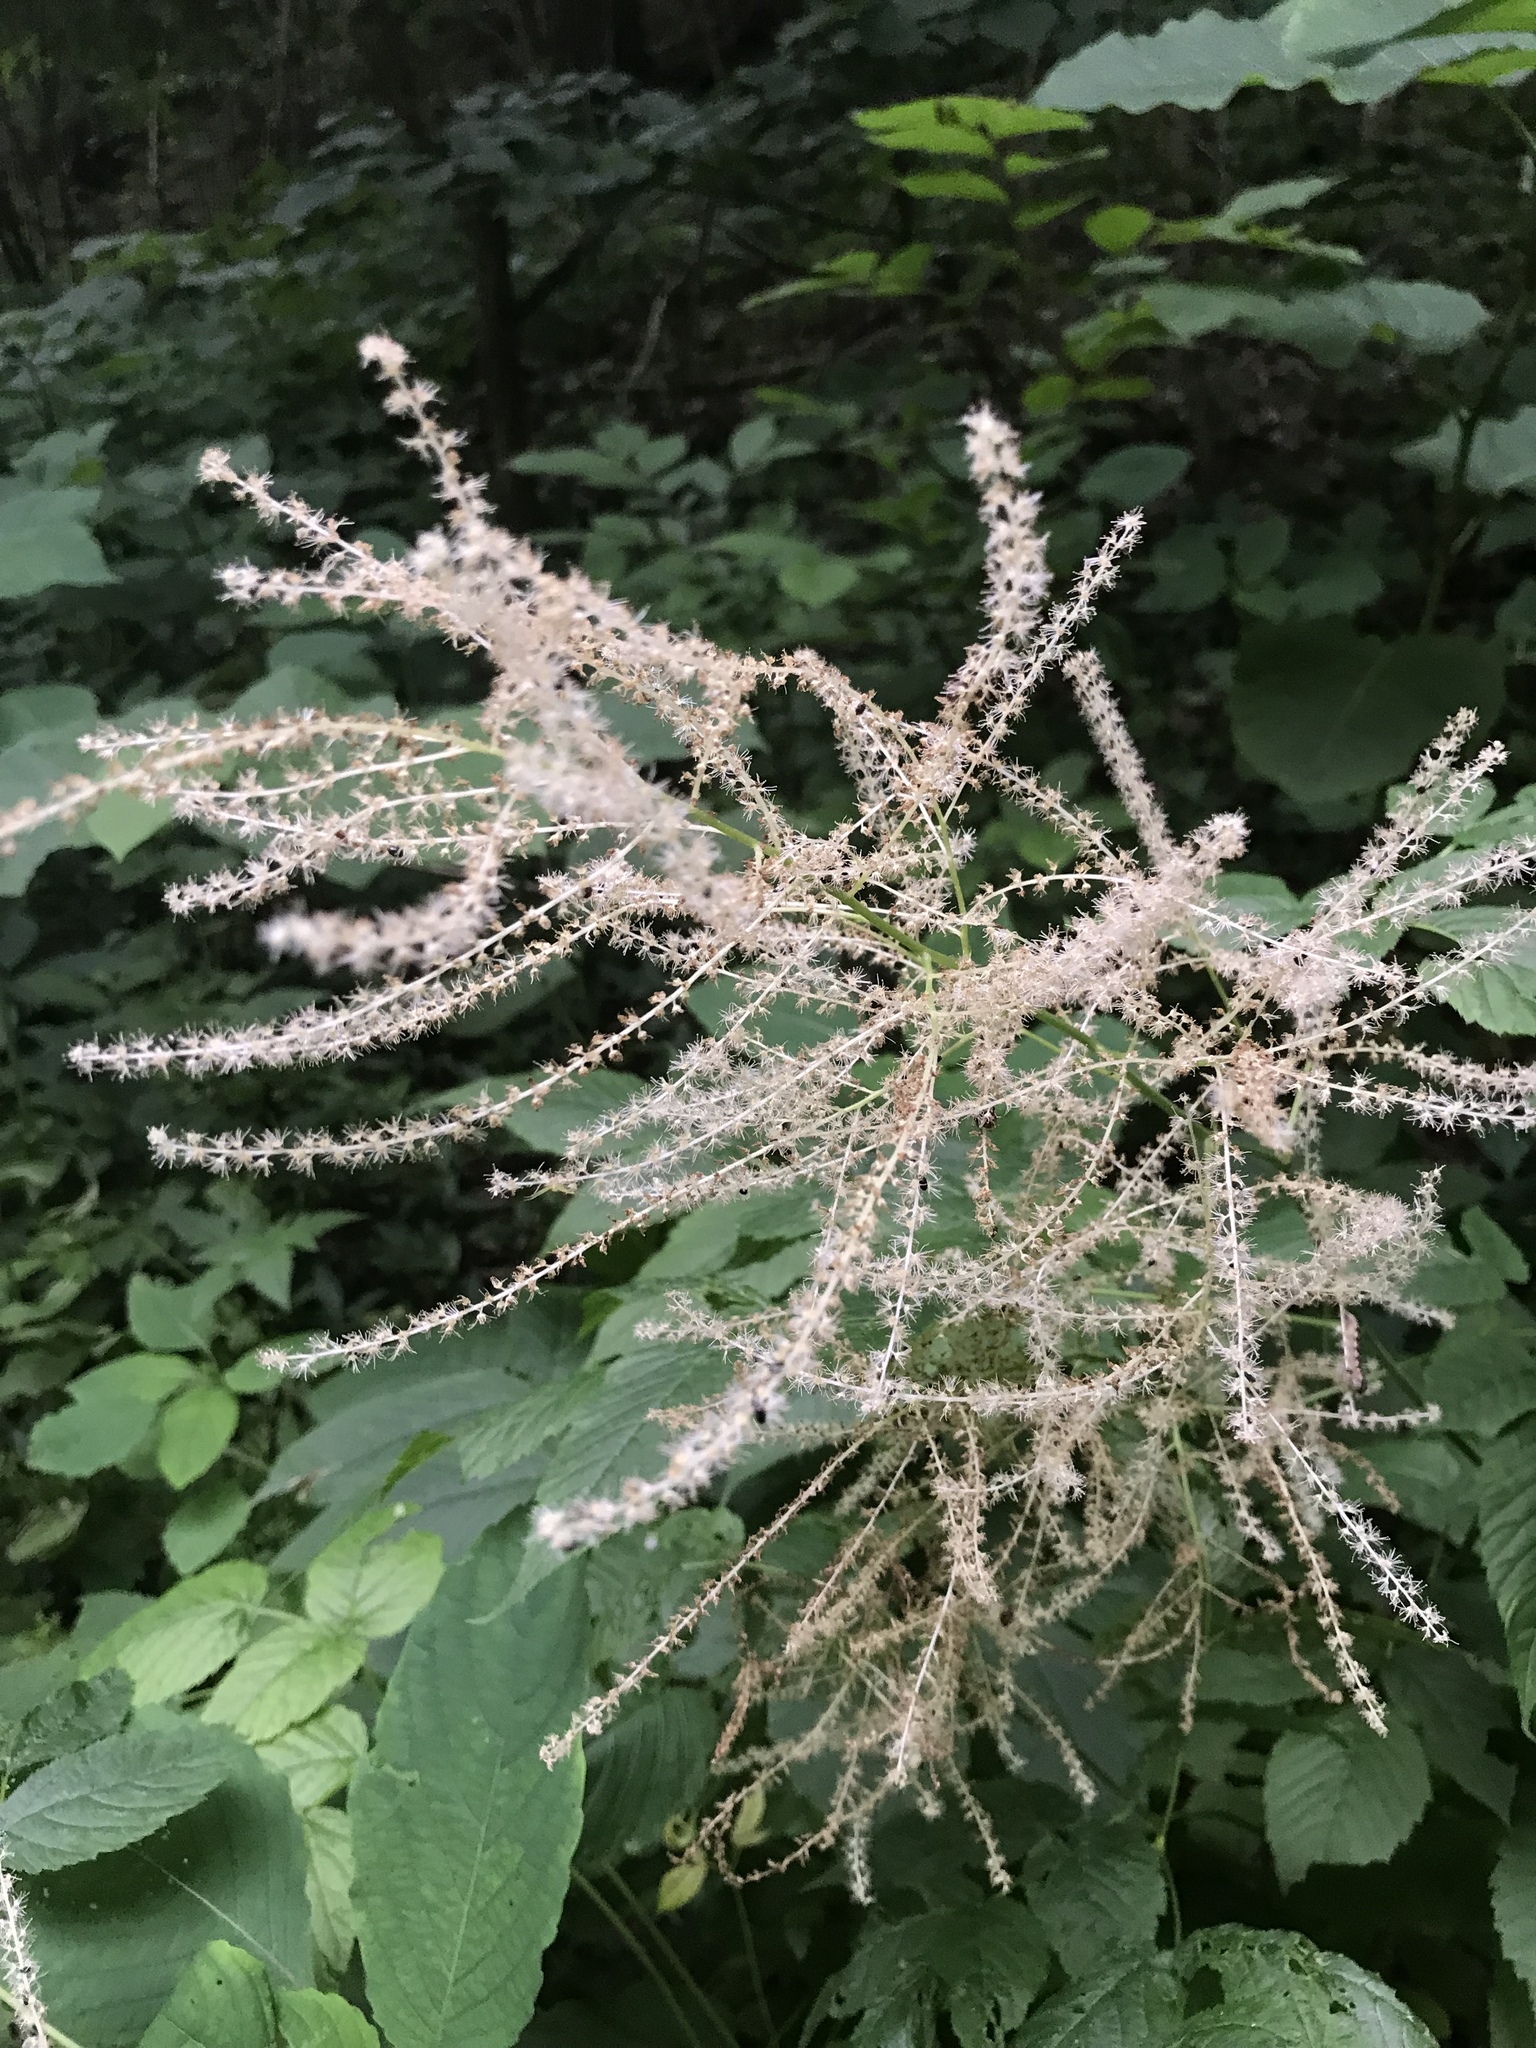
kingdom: Plantae
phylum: Tracheophyta
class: Magnoliopsida
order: Rosales
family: Rosaceae
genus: Aruncus
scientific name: Aruncus dioicus
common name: Buck's-beard
